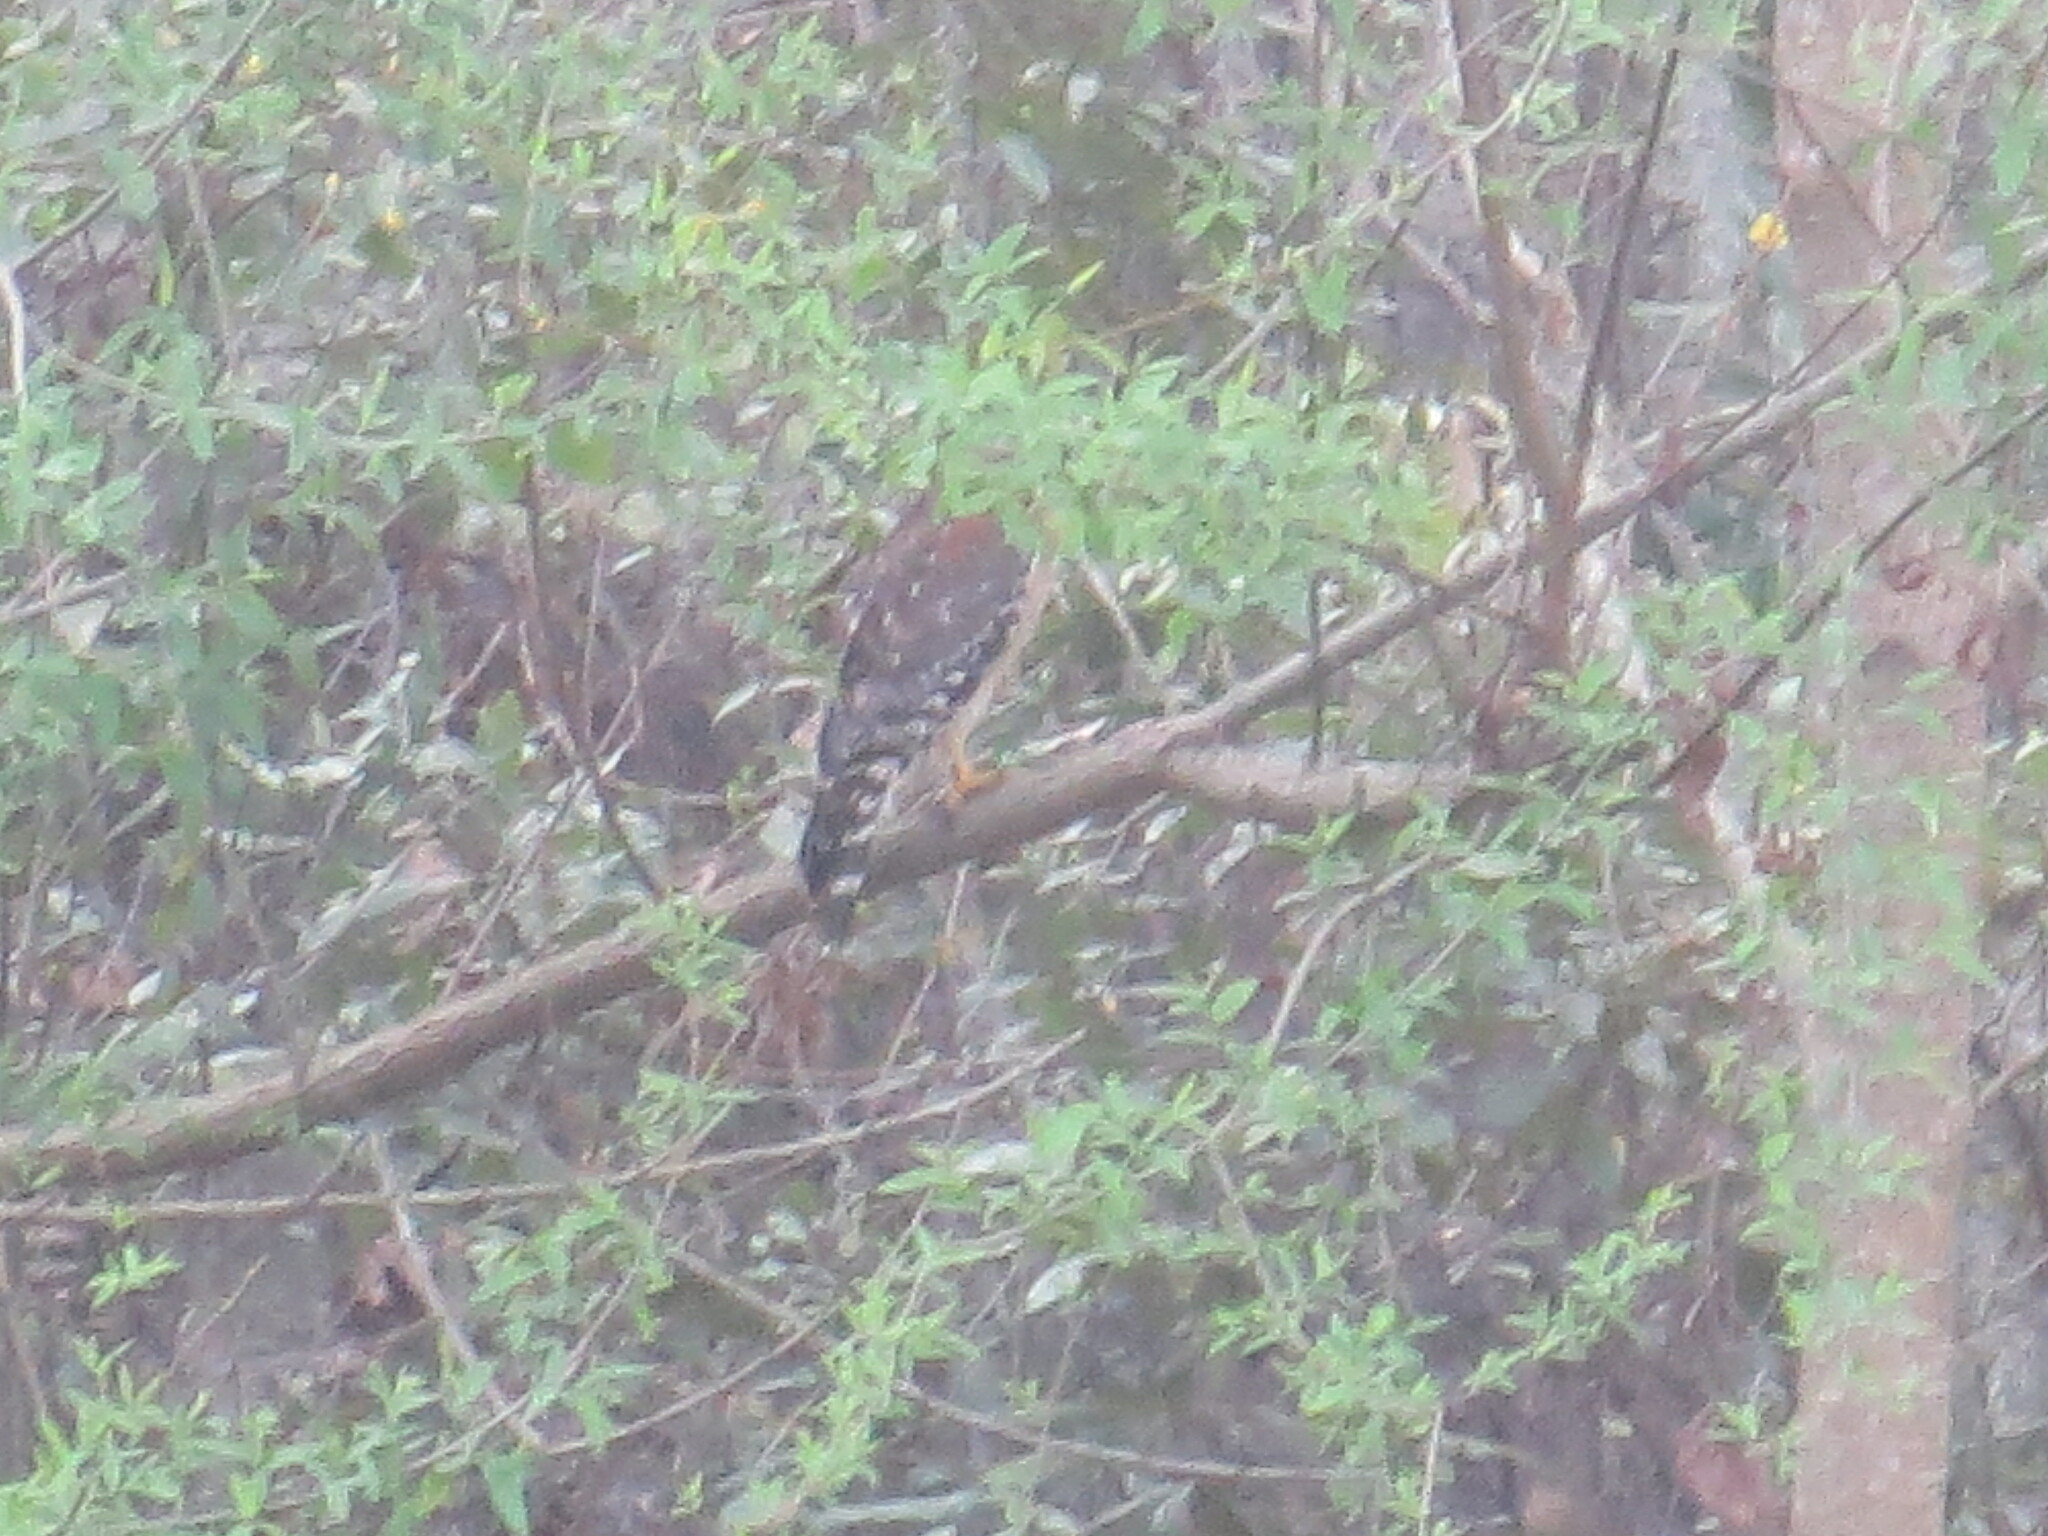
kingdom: Animalia
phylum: Chordata
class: Aves
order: Accipitriformes
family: Accipitridae
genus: Buteo
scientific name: Buteo lineatus
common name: Red-shouldered hawk
